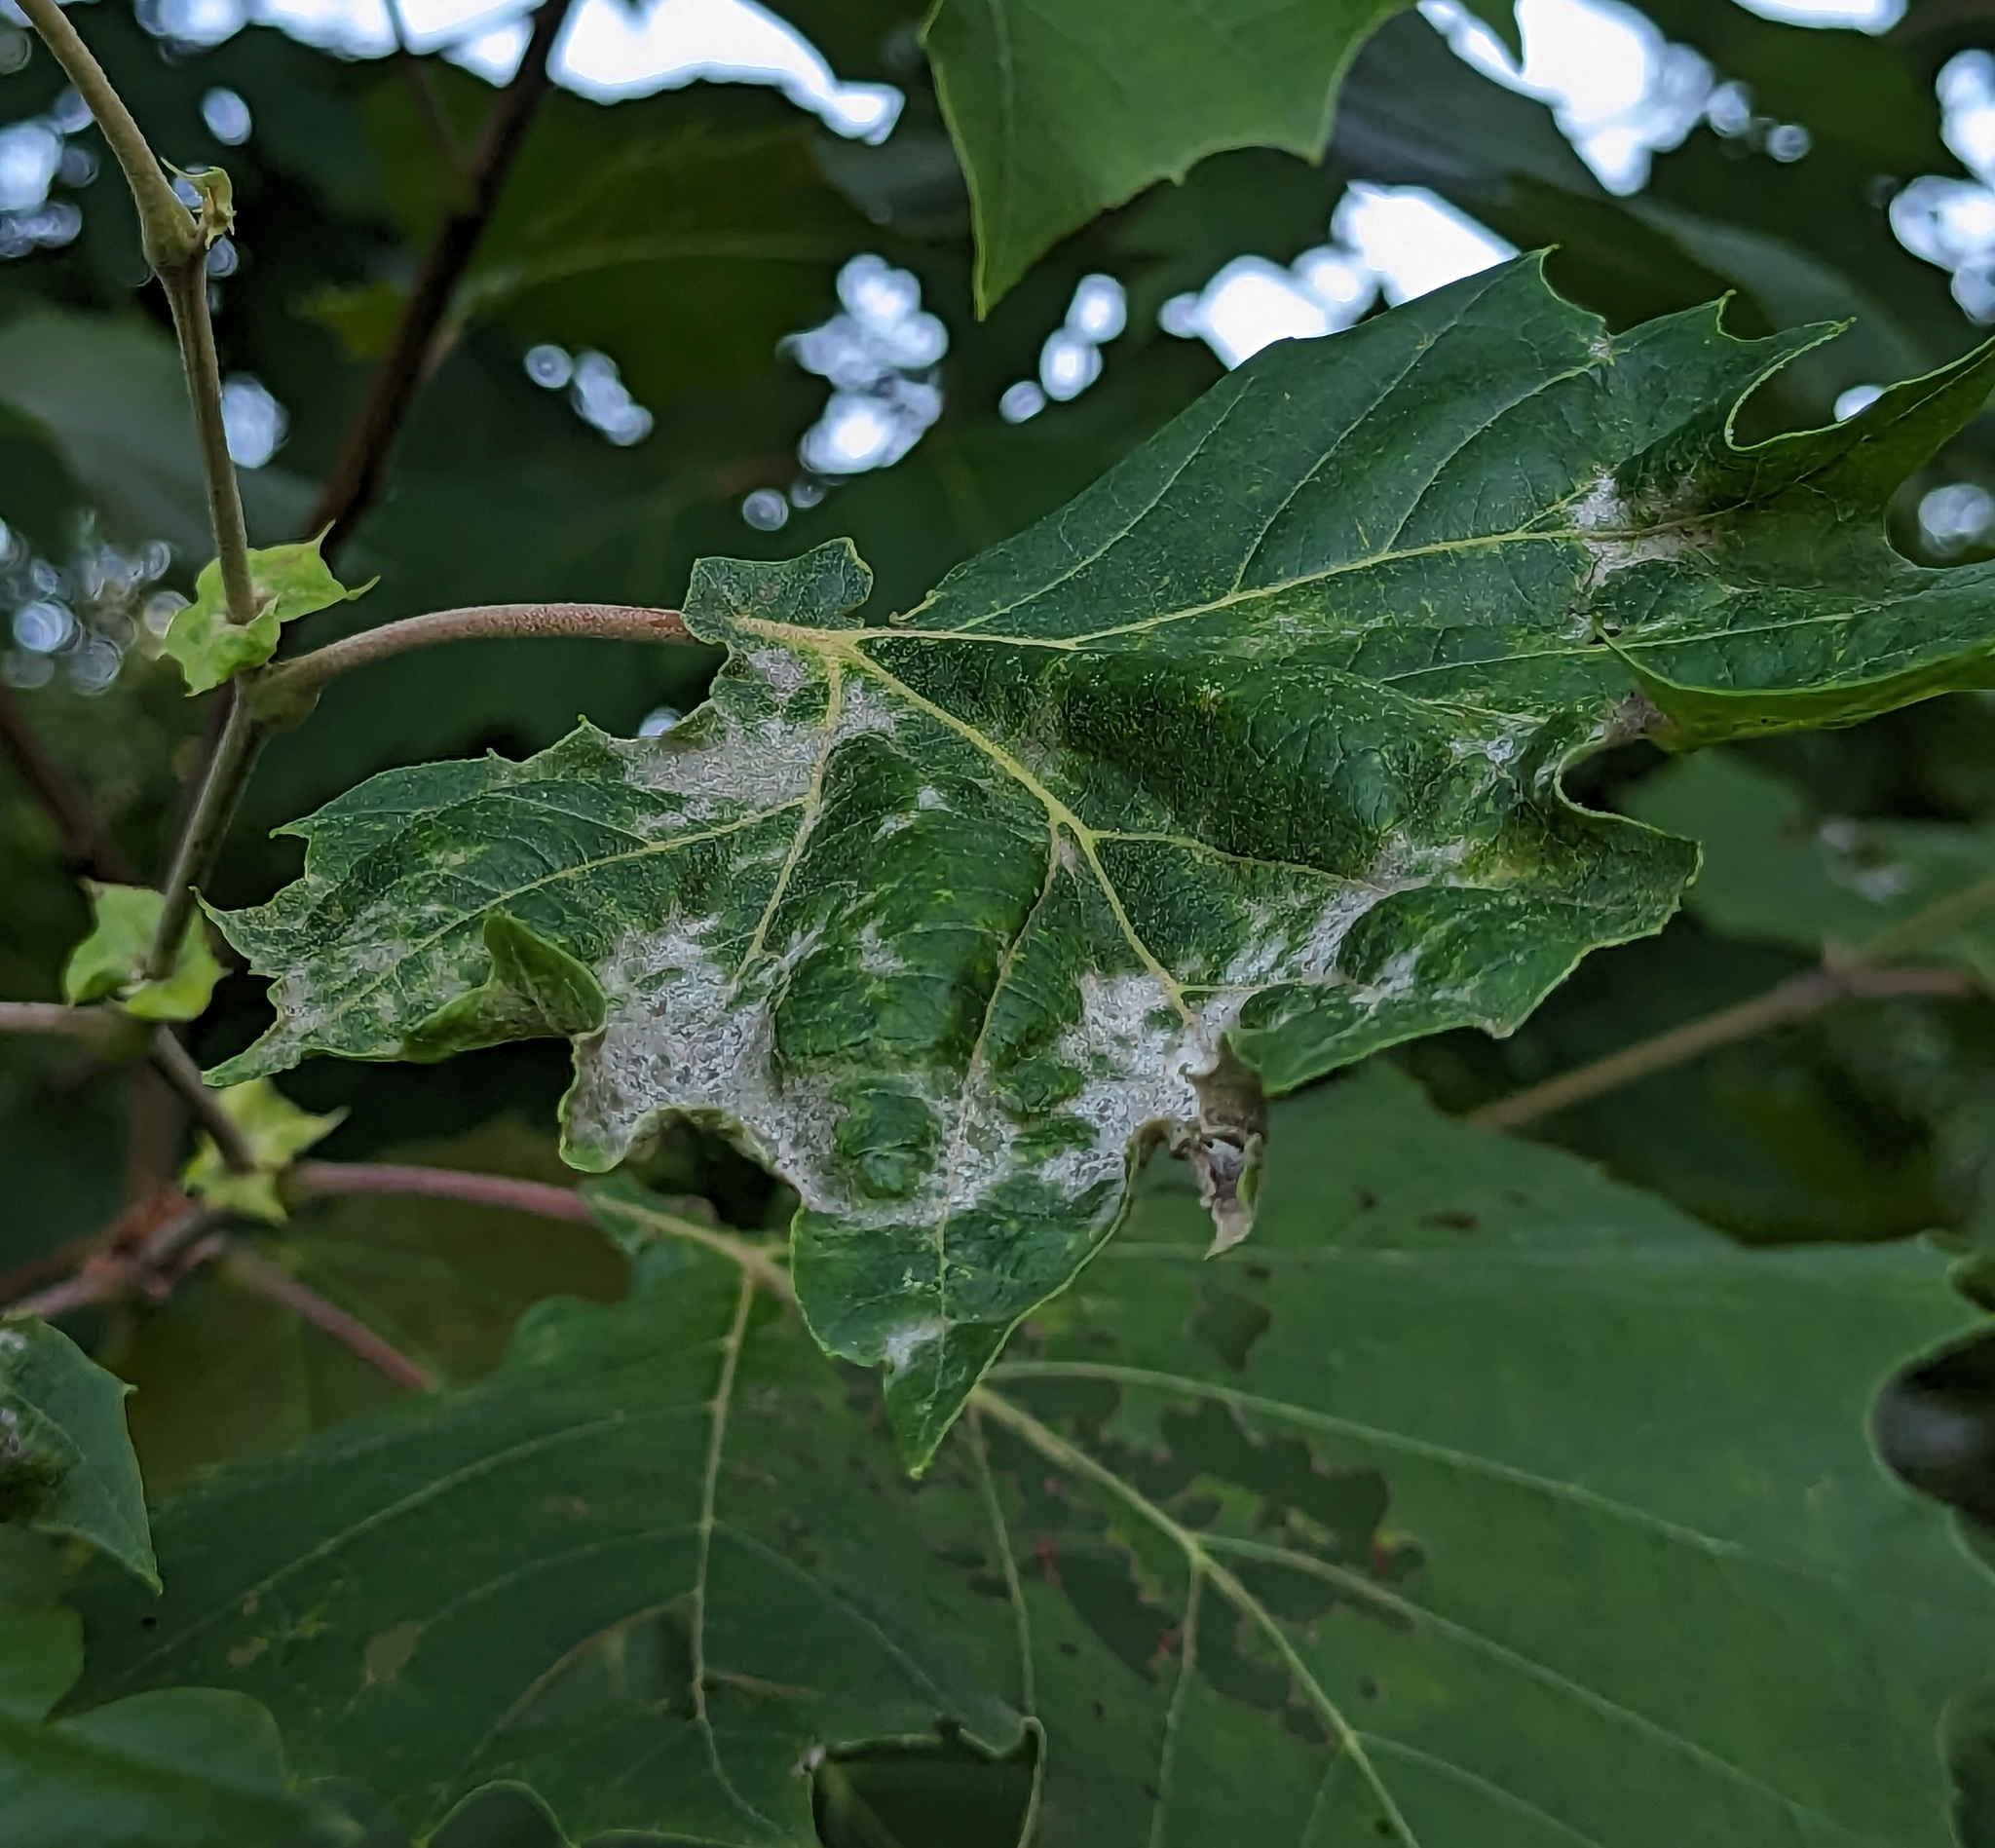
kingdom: Fungi
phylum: Ascomycota
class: Leotiomycetes
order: Helotiales
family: Erysiphaceae
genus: Erysiphe
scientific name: Erysiphe platani
